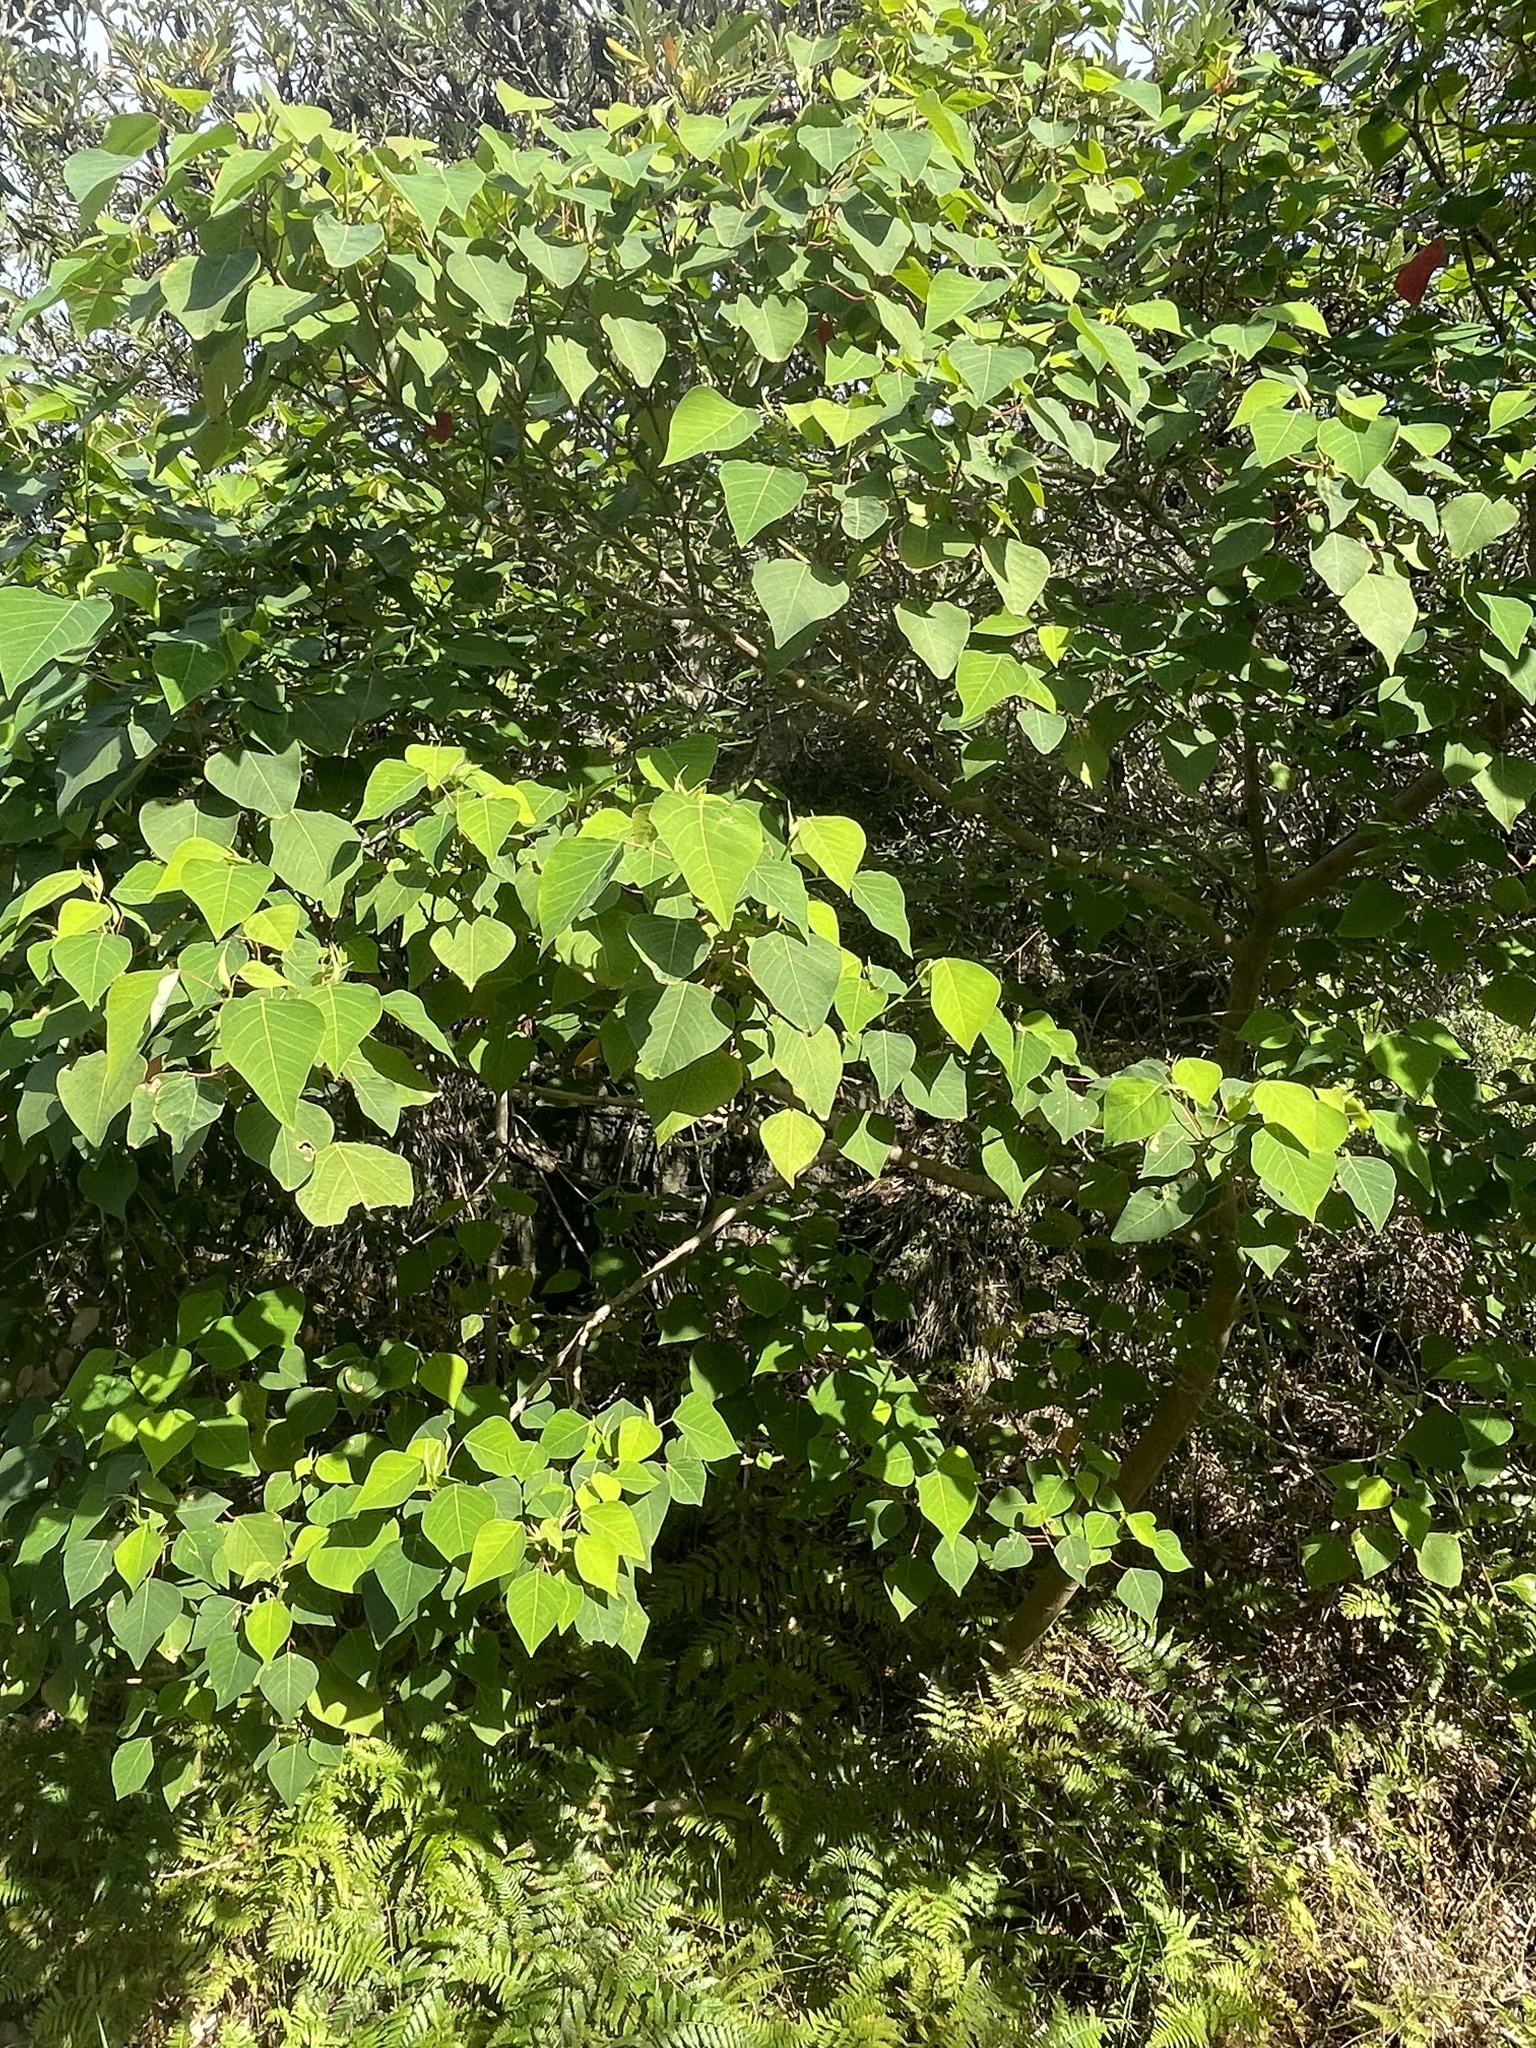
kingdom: Plantae
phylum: Tracheophyta
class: Magnoliopsida
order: Malpighiales
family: Euphorbiaceae
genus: Homalanthus
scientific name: Homalanthus populifolius
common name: Queensland poplar
